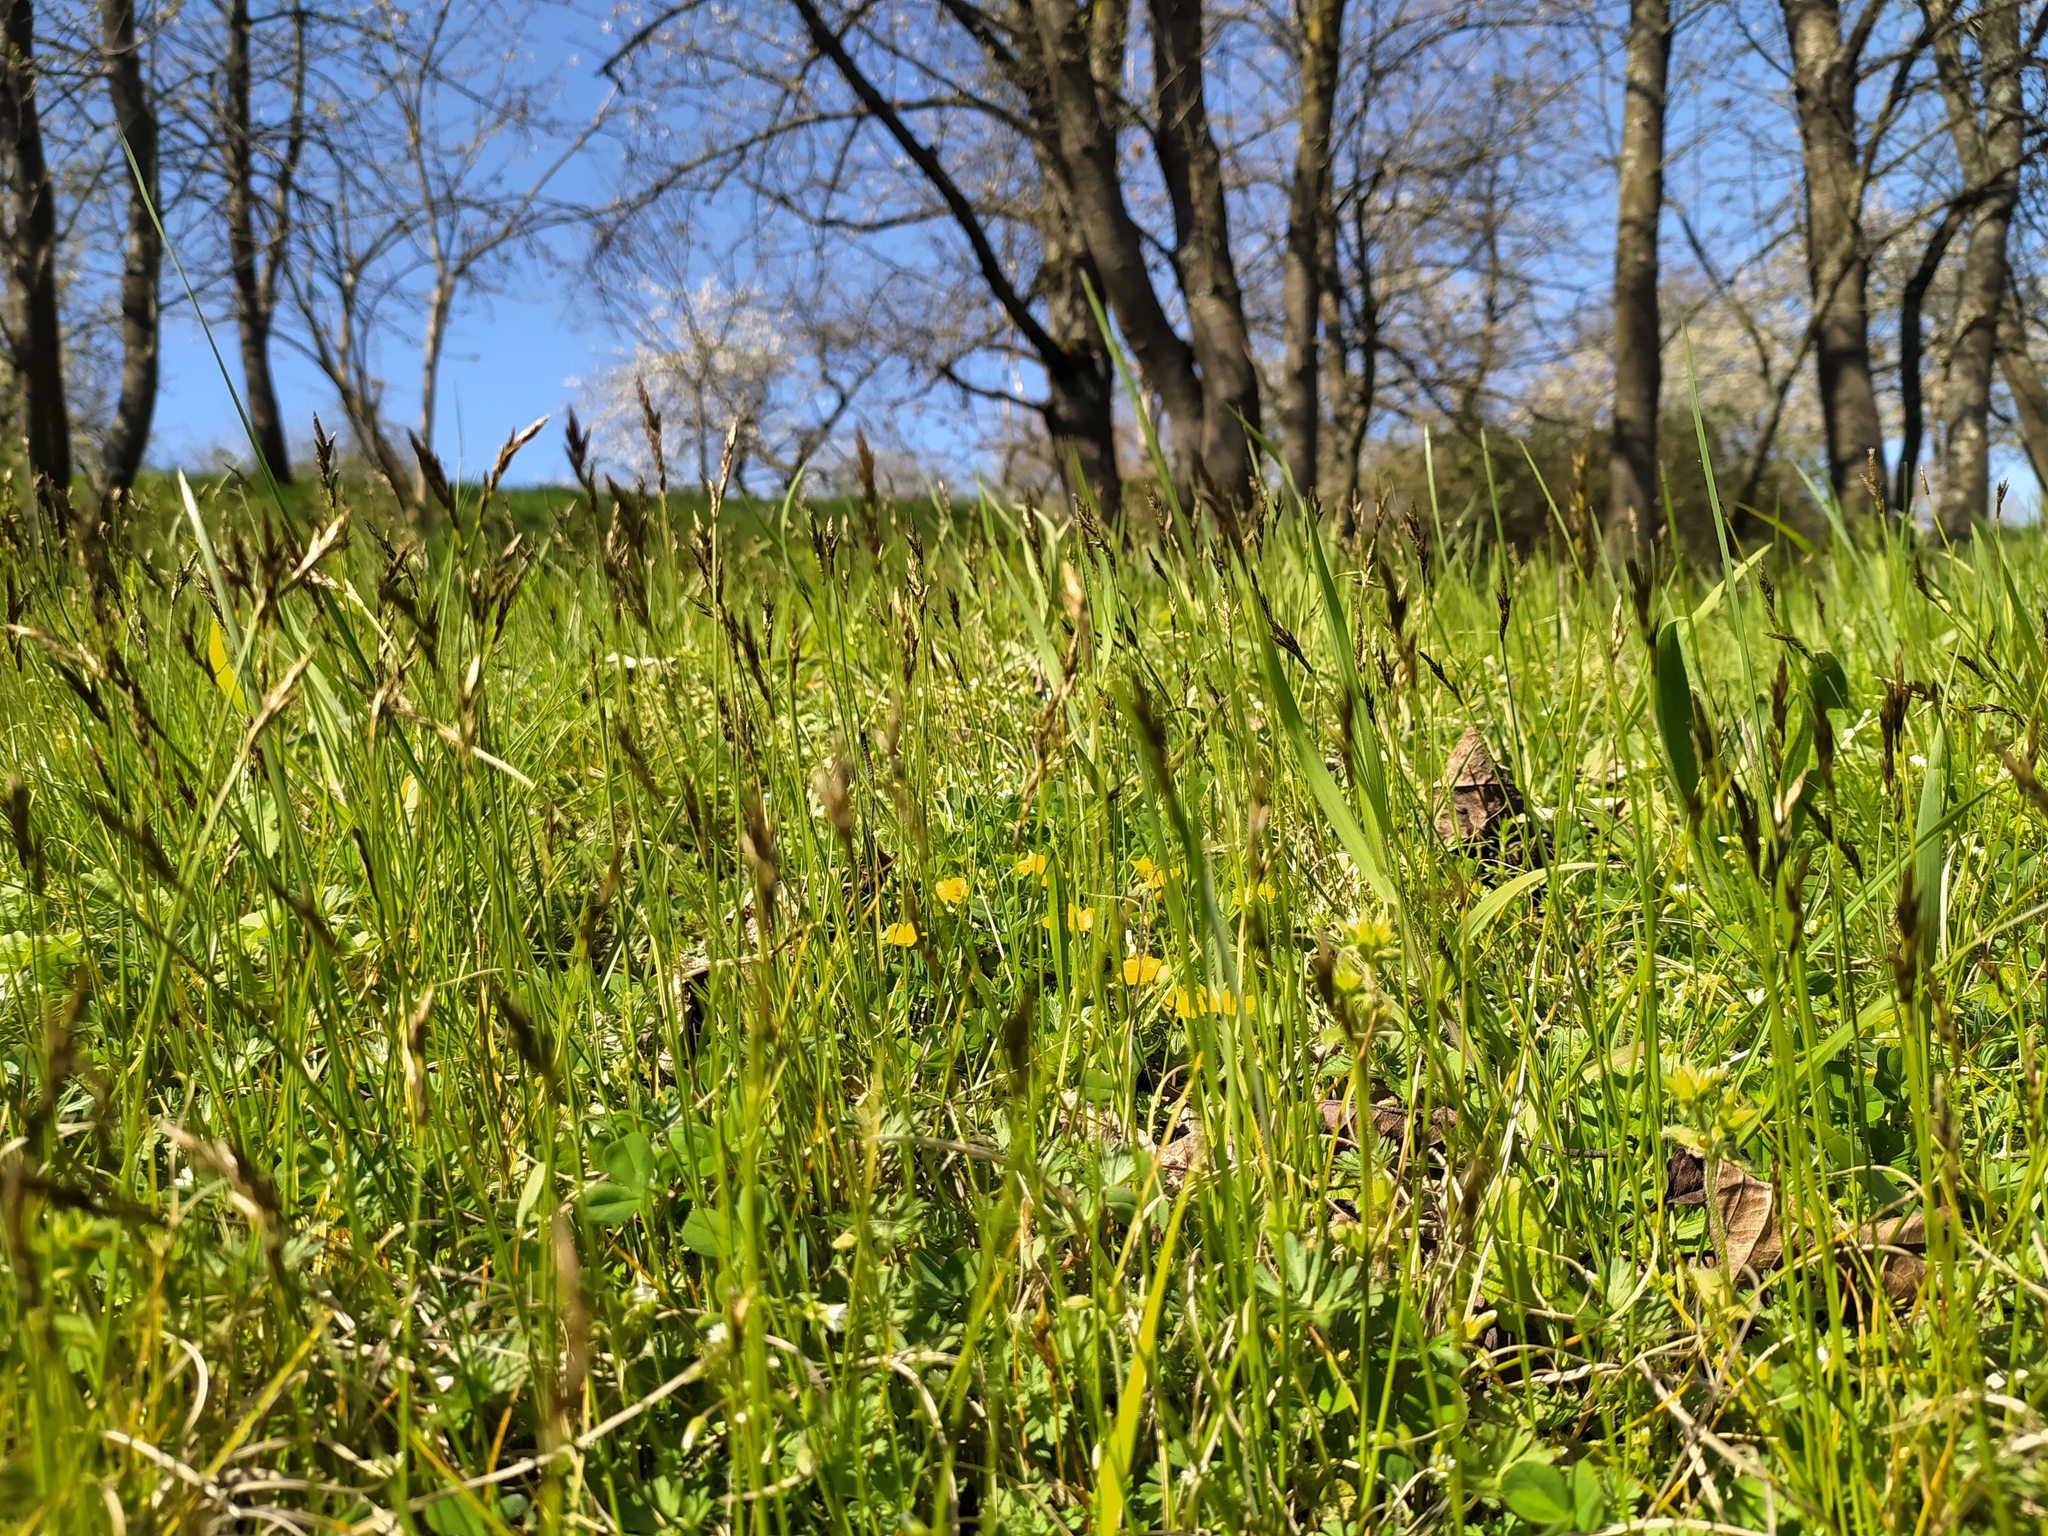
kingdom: Plantae
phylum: Tracheophyta
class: Liliopsida
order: Poales
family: Cyperaceae
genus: Carex
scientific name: Carex praecox
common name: Early sedge
